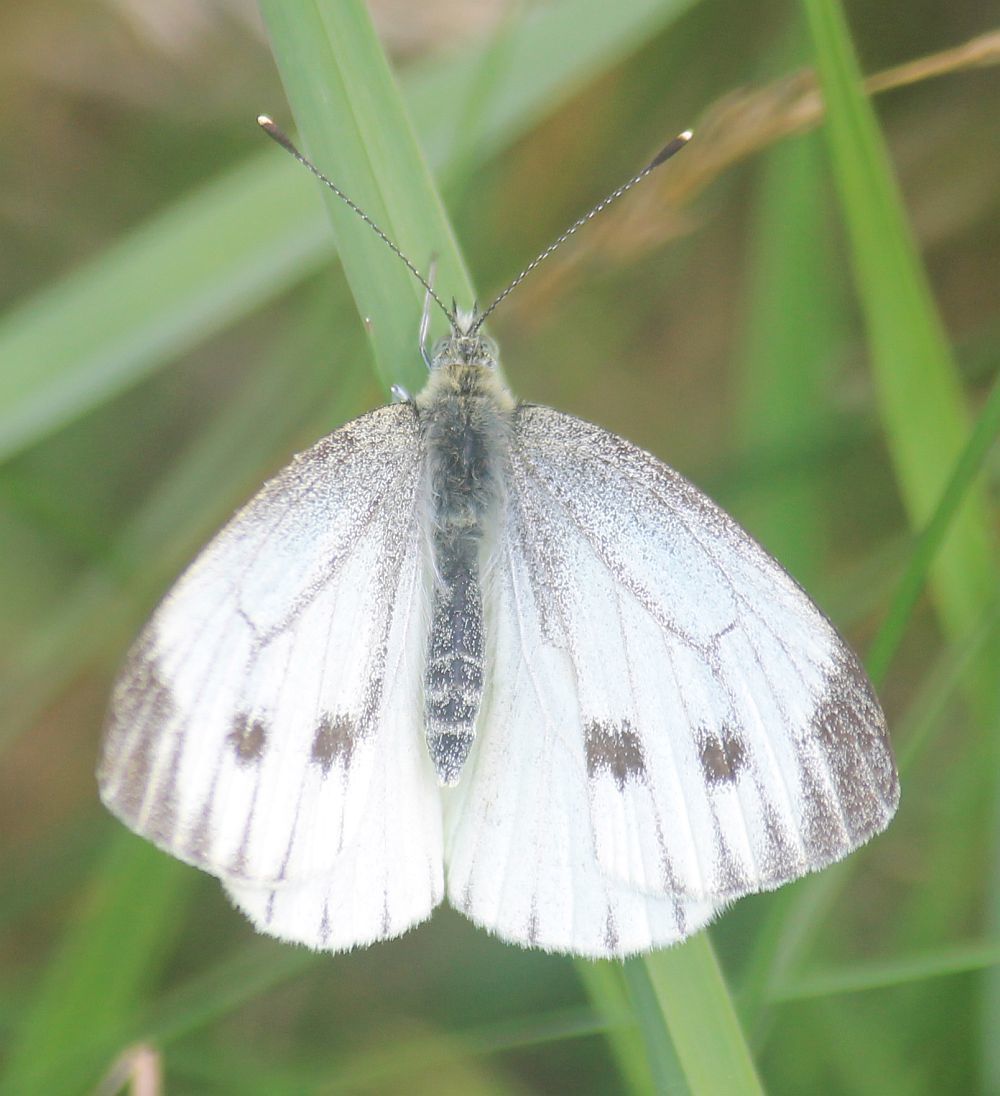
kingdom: Animalia
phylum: Arthropoda
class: Insecta
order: Lepidoptera
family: Pieridae
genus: Pieris
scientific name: Pieris napi
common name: Green-veined white
